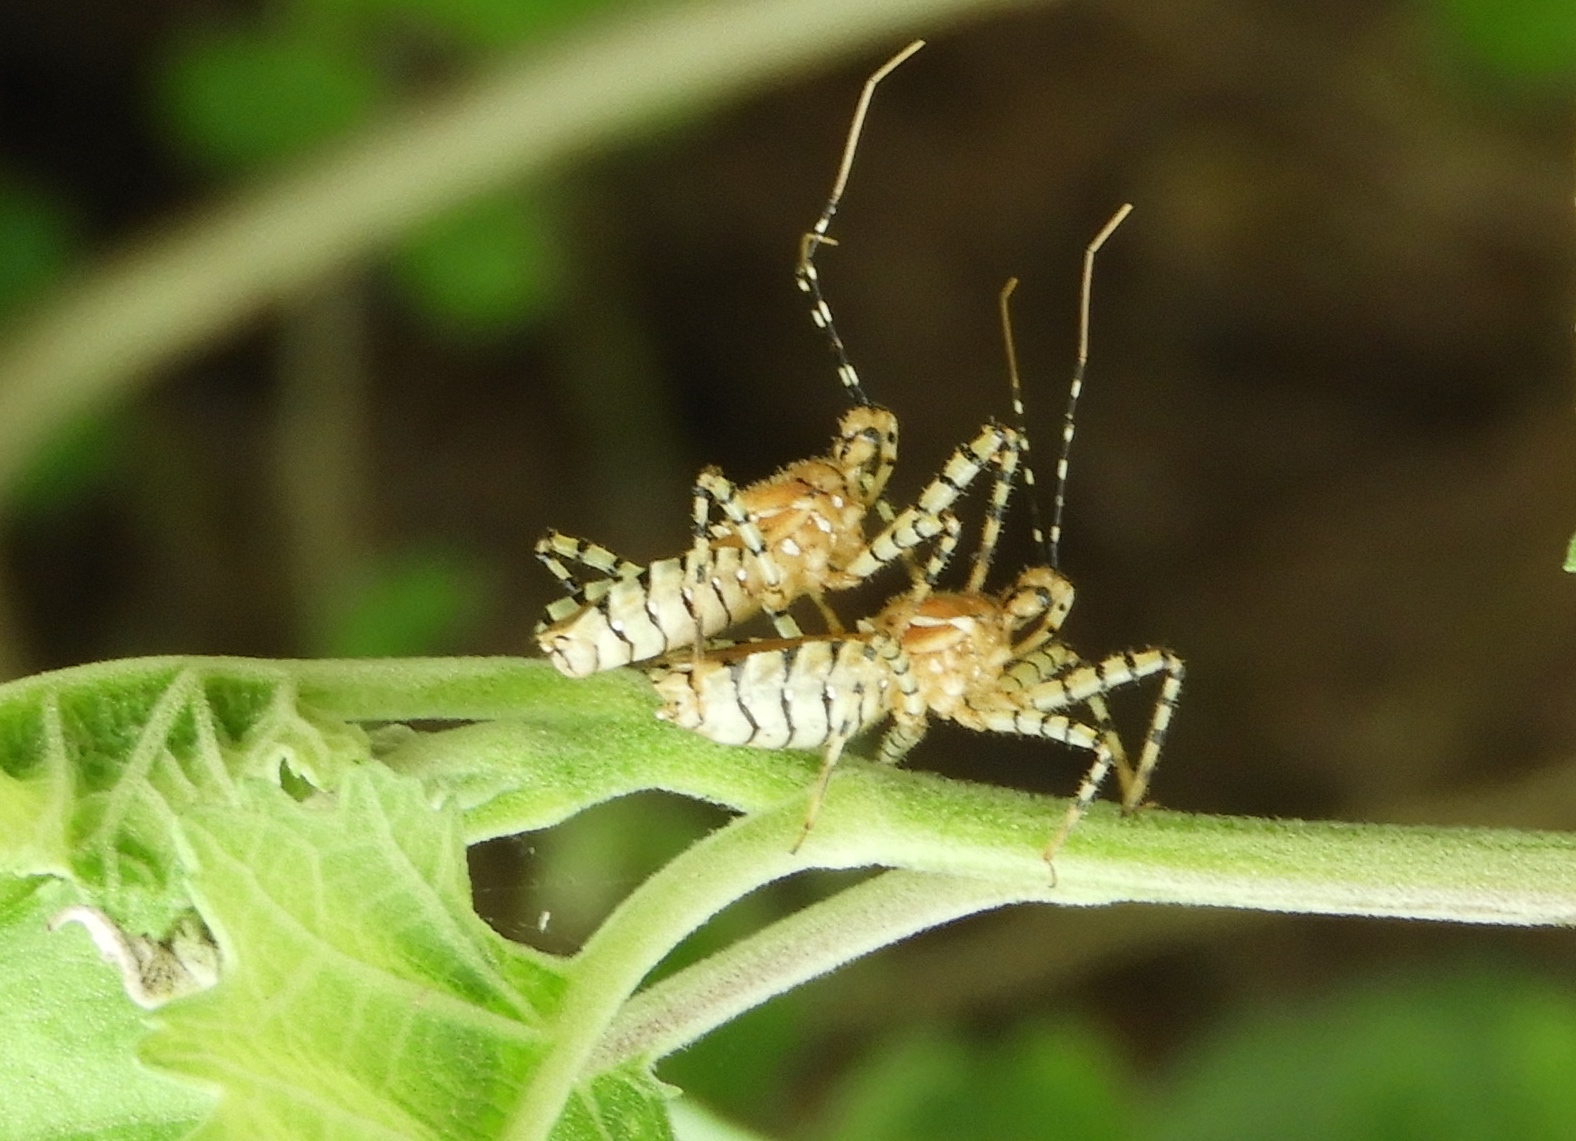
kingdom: Animalia
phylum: Arthropoda
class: Insecta
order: Hemiptera
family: Reduviidae
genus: Pselliopus
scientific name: Pselliopus
